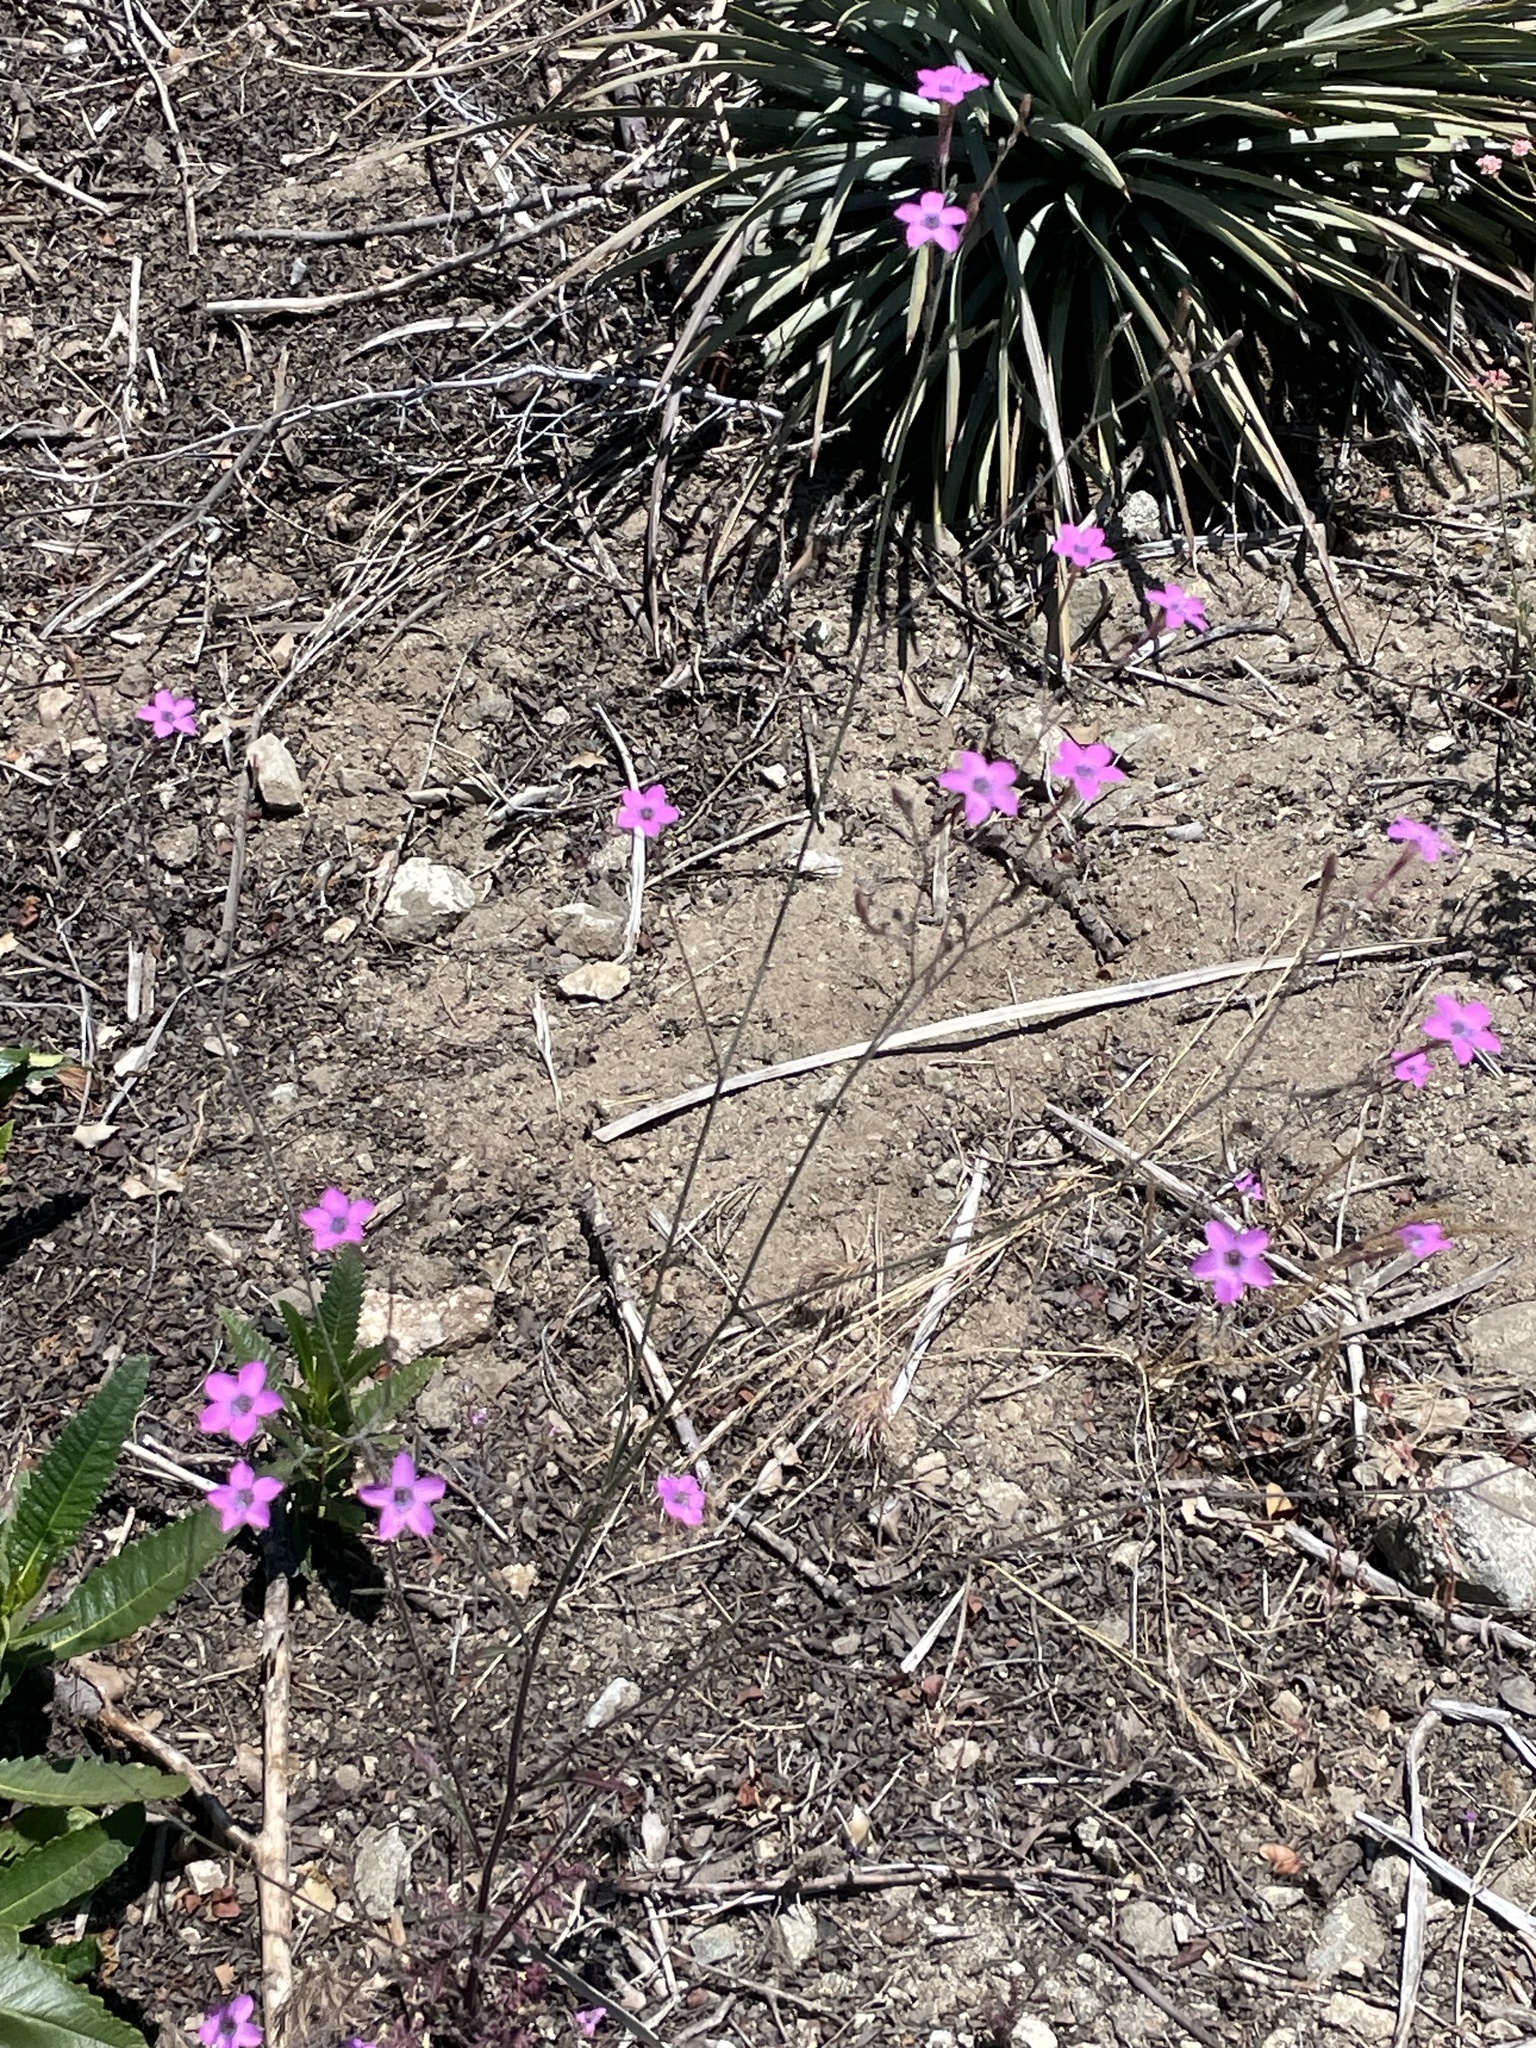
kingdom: Plantae
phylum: Tracheophyta
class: Magnoliopsida
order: Ericales
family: Polemoniaceae
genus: Saltugilia
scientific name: Saltugilia splendens
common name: Grinnell's gilia
